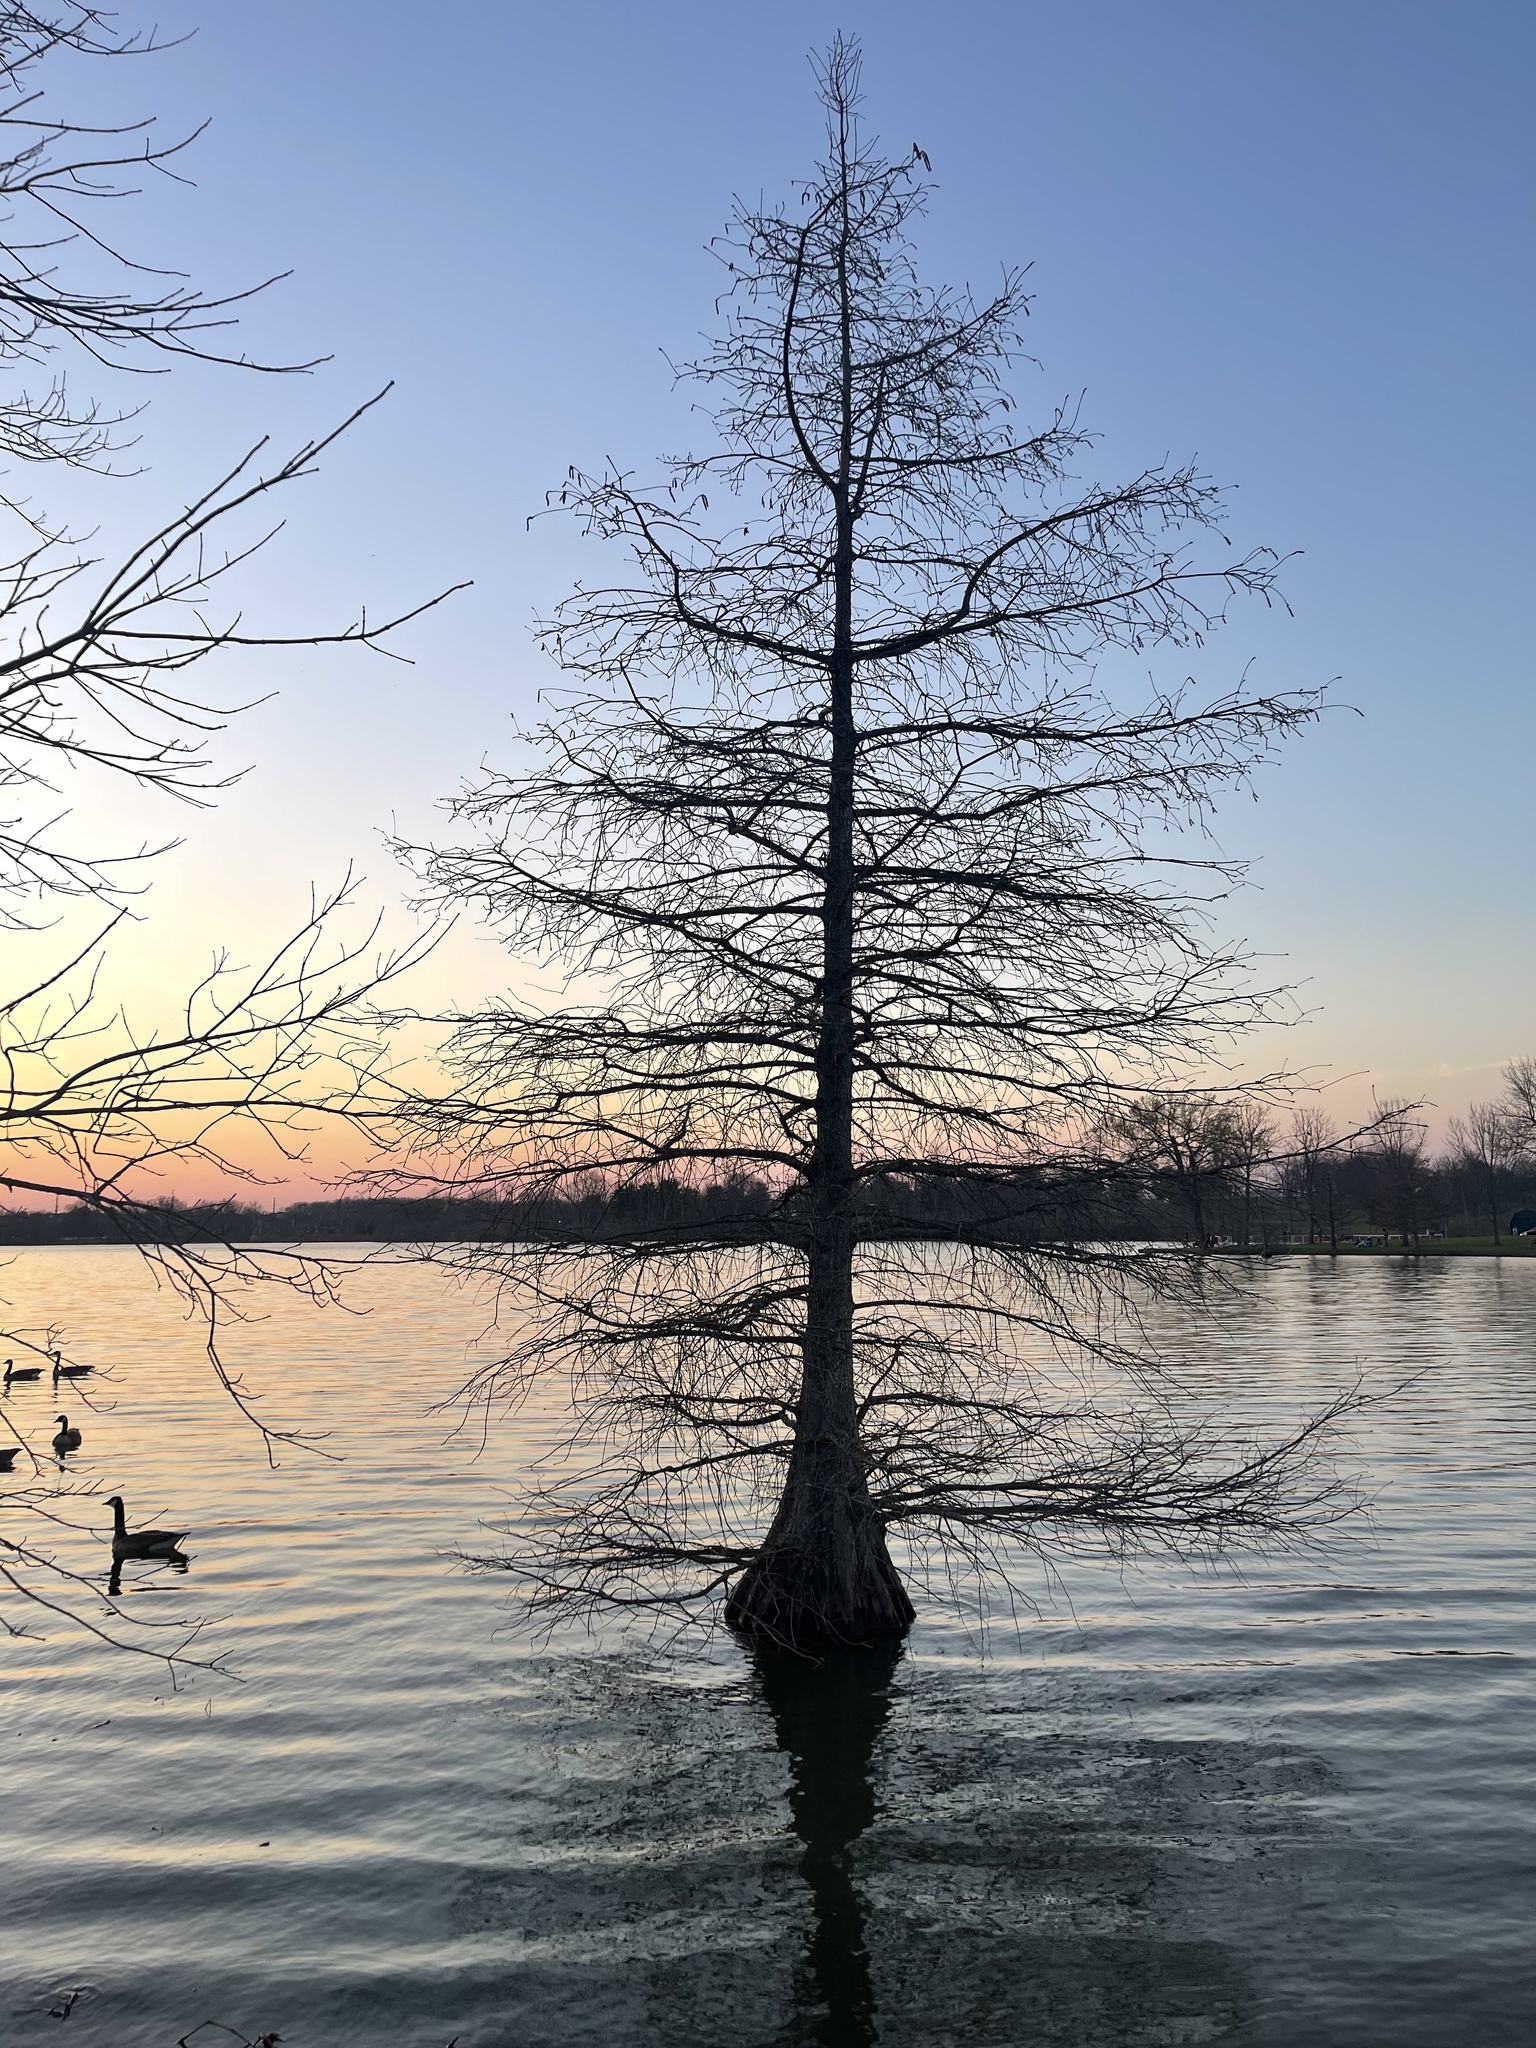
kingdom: Plantae
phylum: Tracheophyta
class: Pinopsida
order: Pinales
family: Cupressaceae
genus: Taxodium
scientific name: Taxodium distichum
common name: Bald cypress
